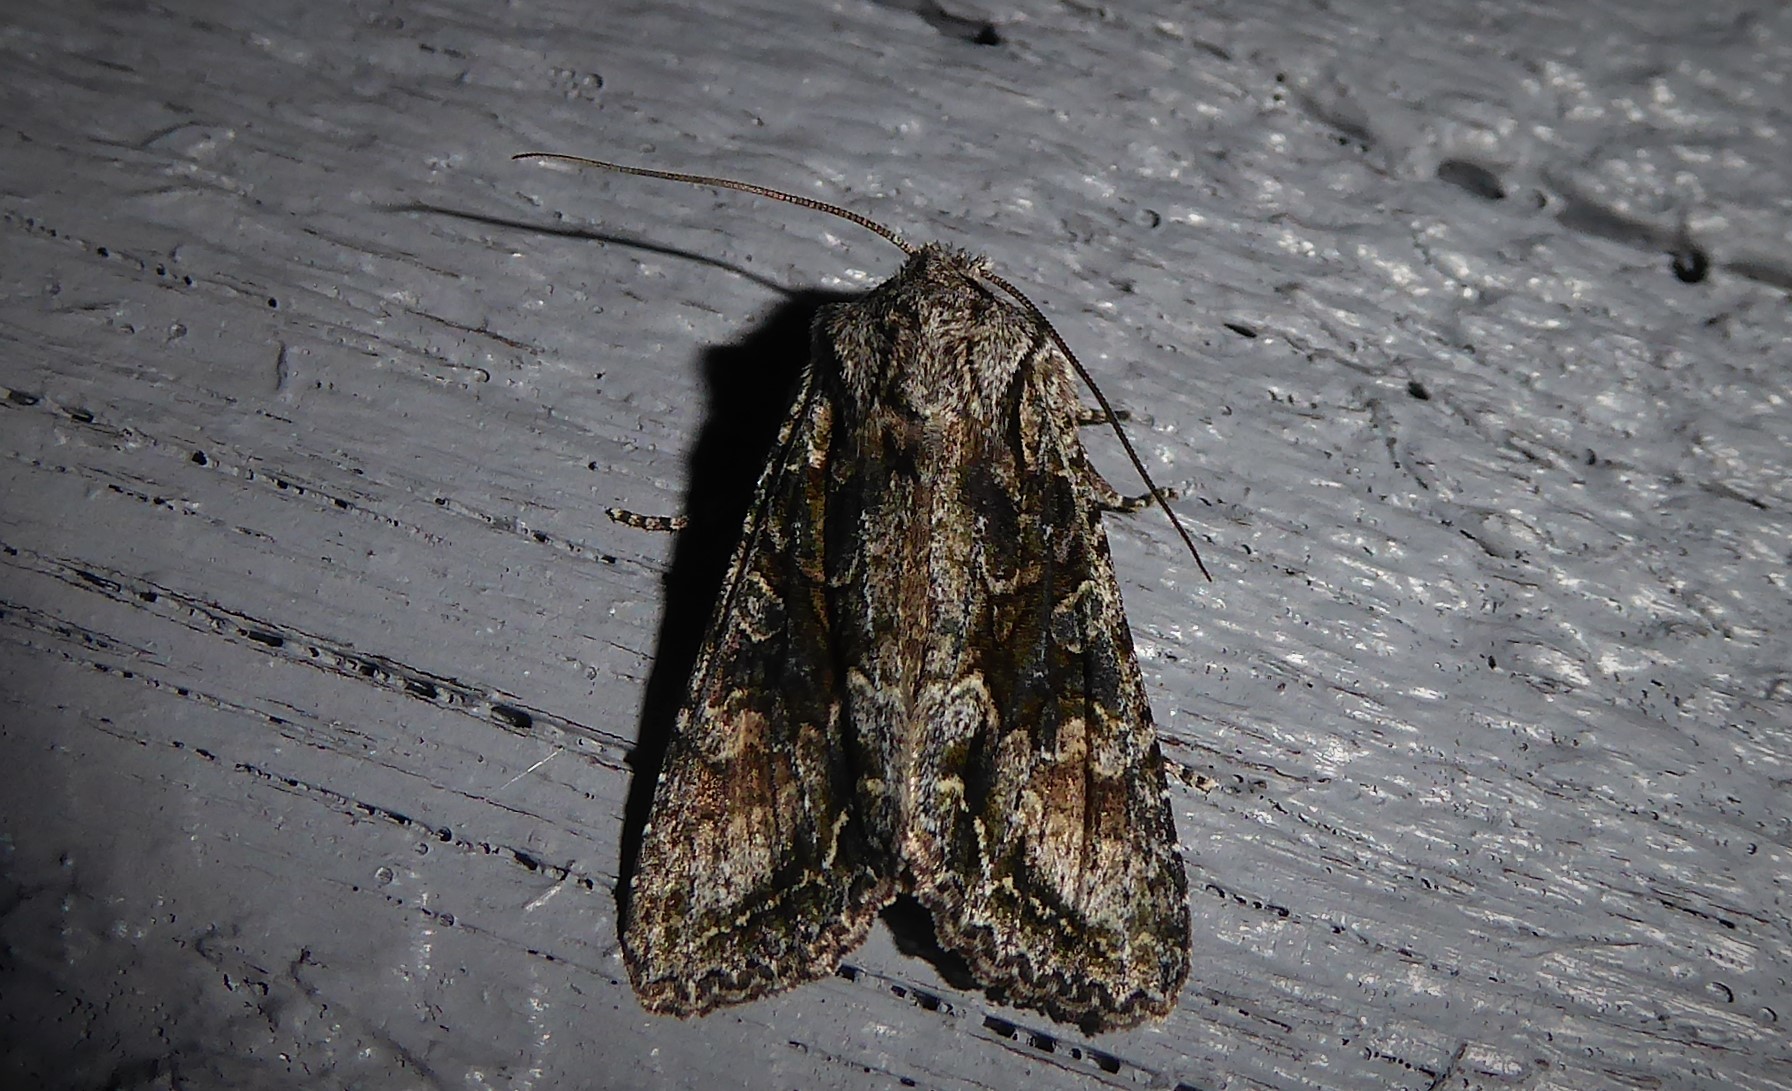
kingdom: Animalia
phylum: Arthropoda
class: Insecta
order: Lepidoptera
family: Noctuidae
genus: Ichneutica
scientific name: Ichneutica mutans
